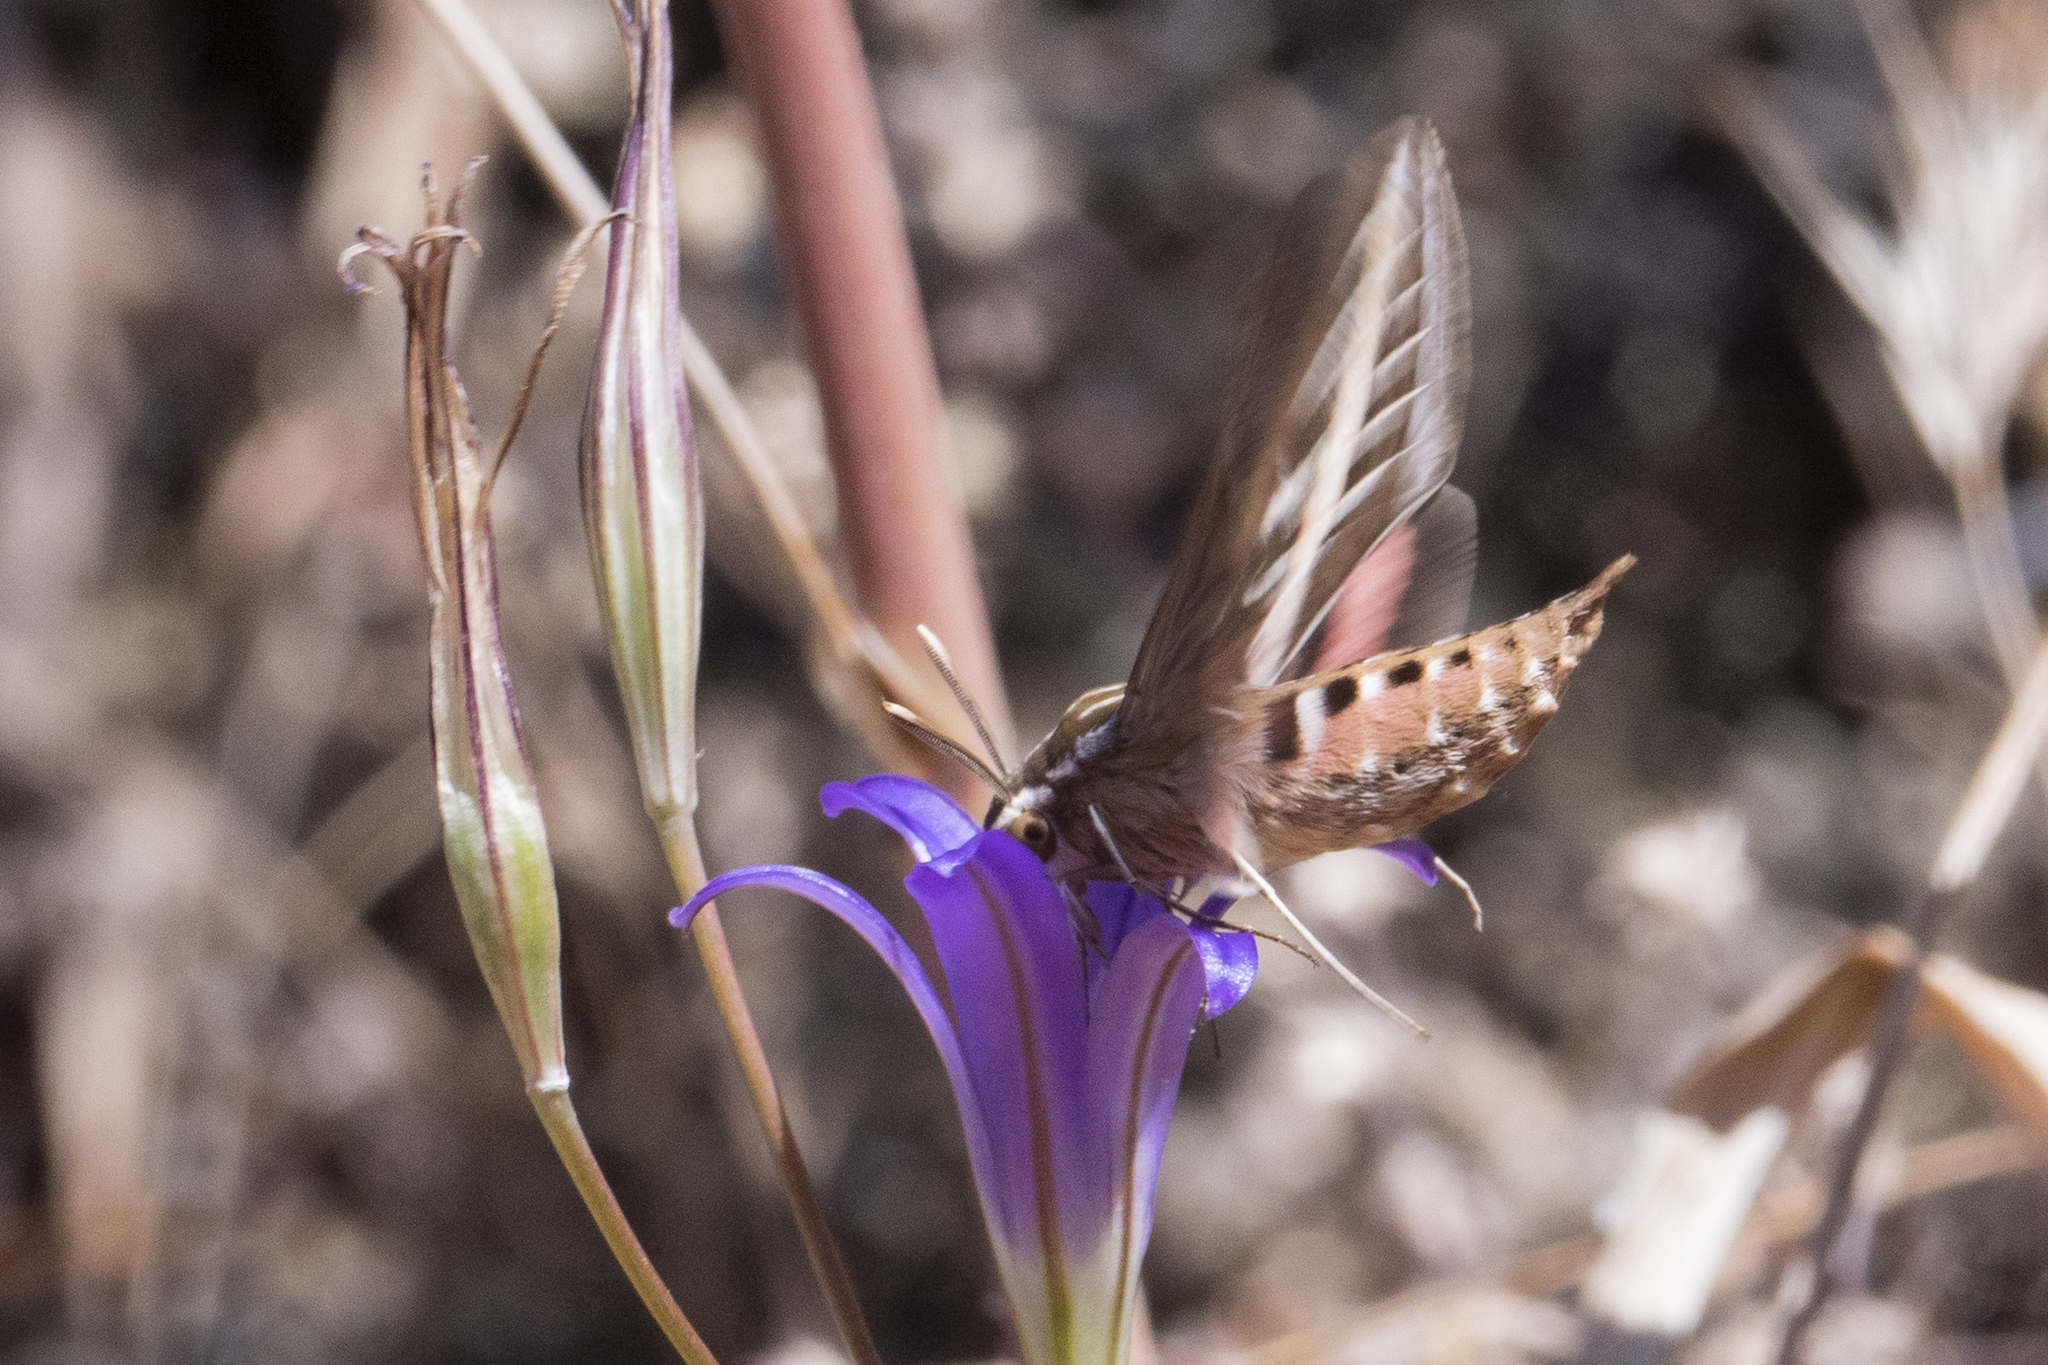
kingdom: Animalia
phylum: Arthropoda
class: Insecta
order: Lepidoptera
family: Sphingidae
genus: Hyles
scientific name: Hyles lineata
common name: White-lined sphinx
